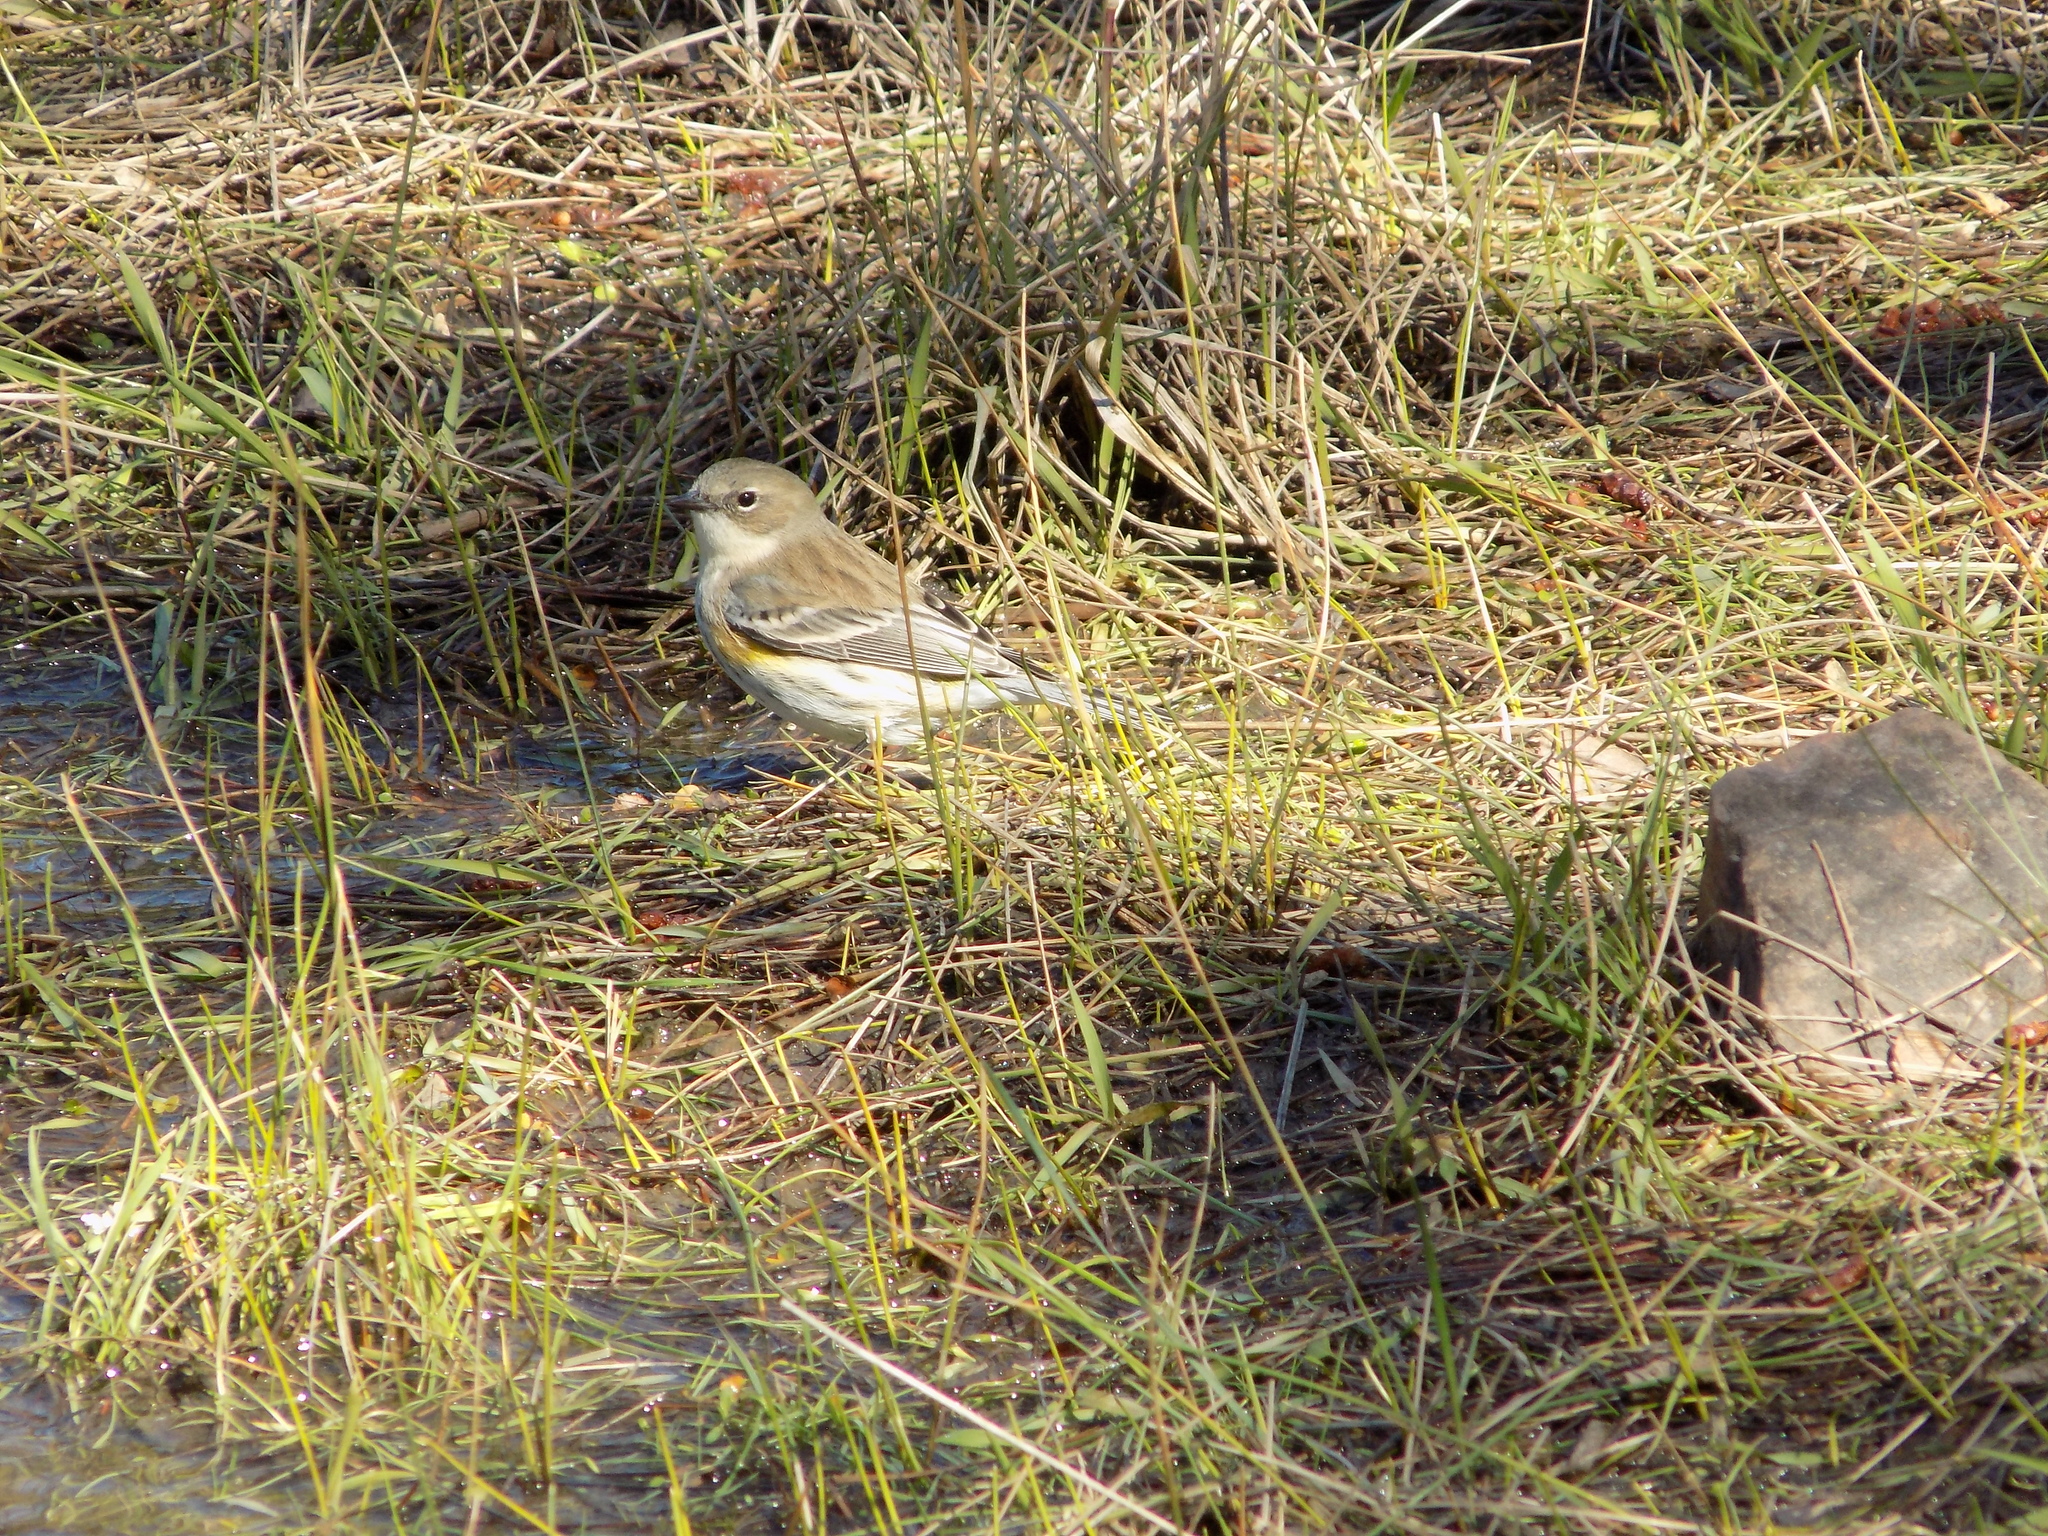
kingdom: Animalia
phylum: Chordata
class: Aves
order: Passeriformes
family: Parulidae
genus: Setophaga
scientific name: Setophaga coronata
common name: Myrtle warbler
